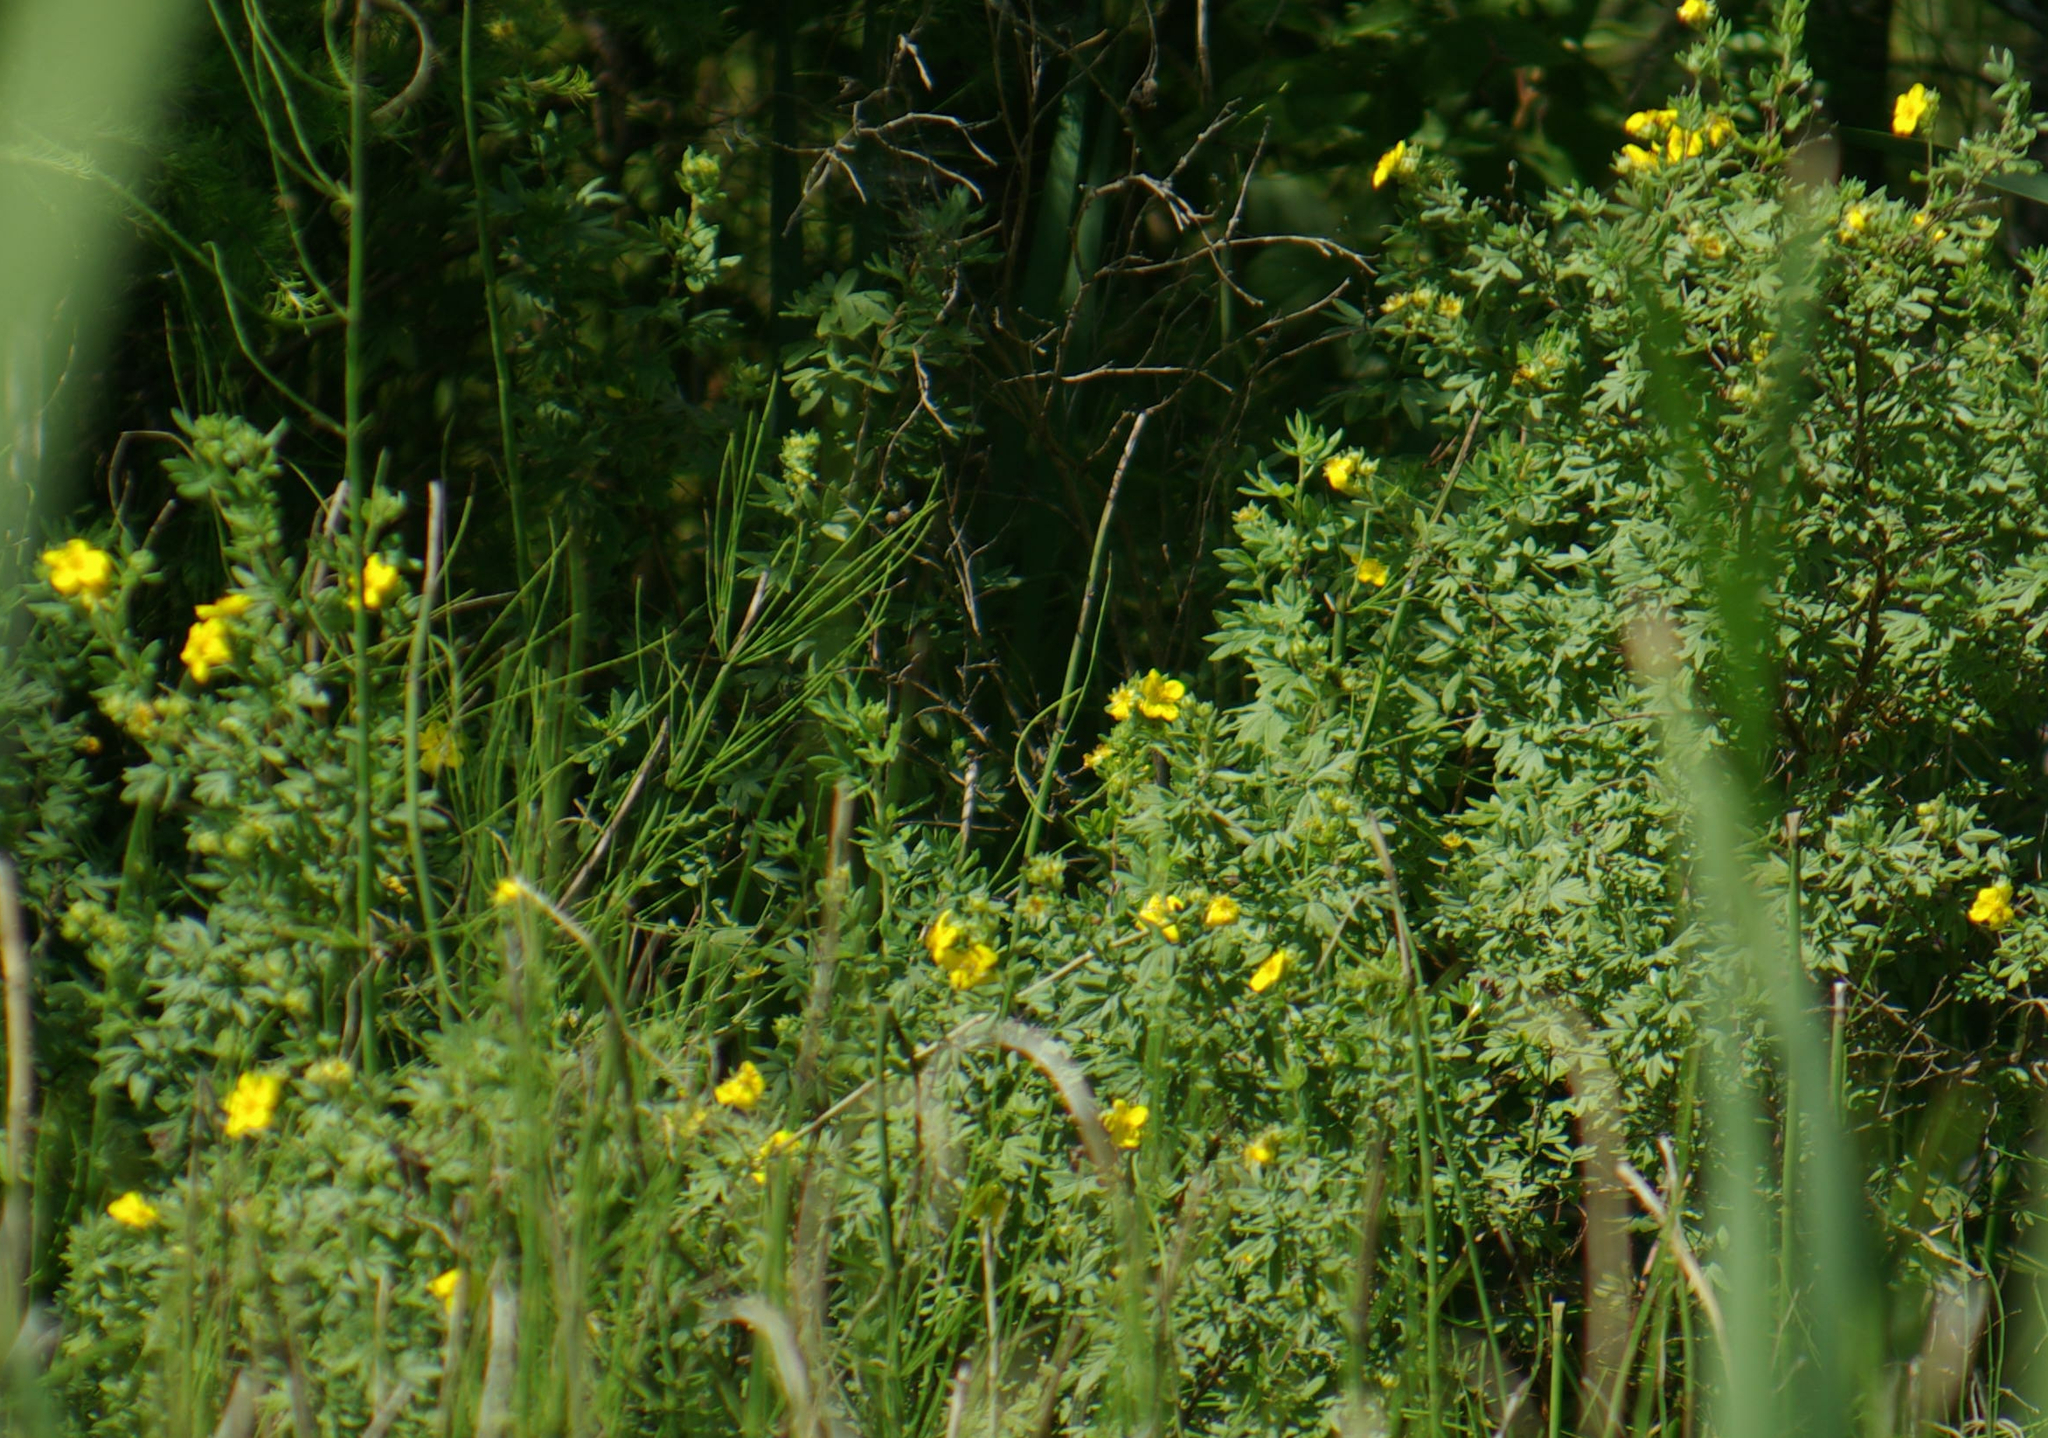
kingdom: Plantae
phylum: Tracheophyta
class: Magnoliopsida
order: Rosales
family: Rosaceae
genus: Dasiphora
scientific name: Dasiphora fruticosa
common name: Shrubby cinquefoil
